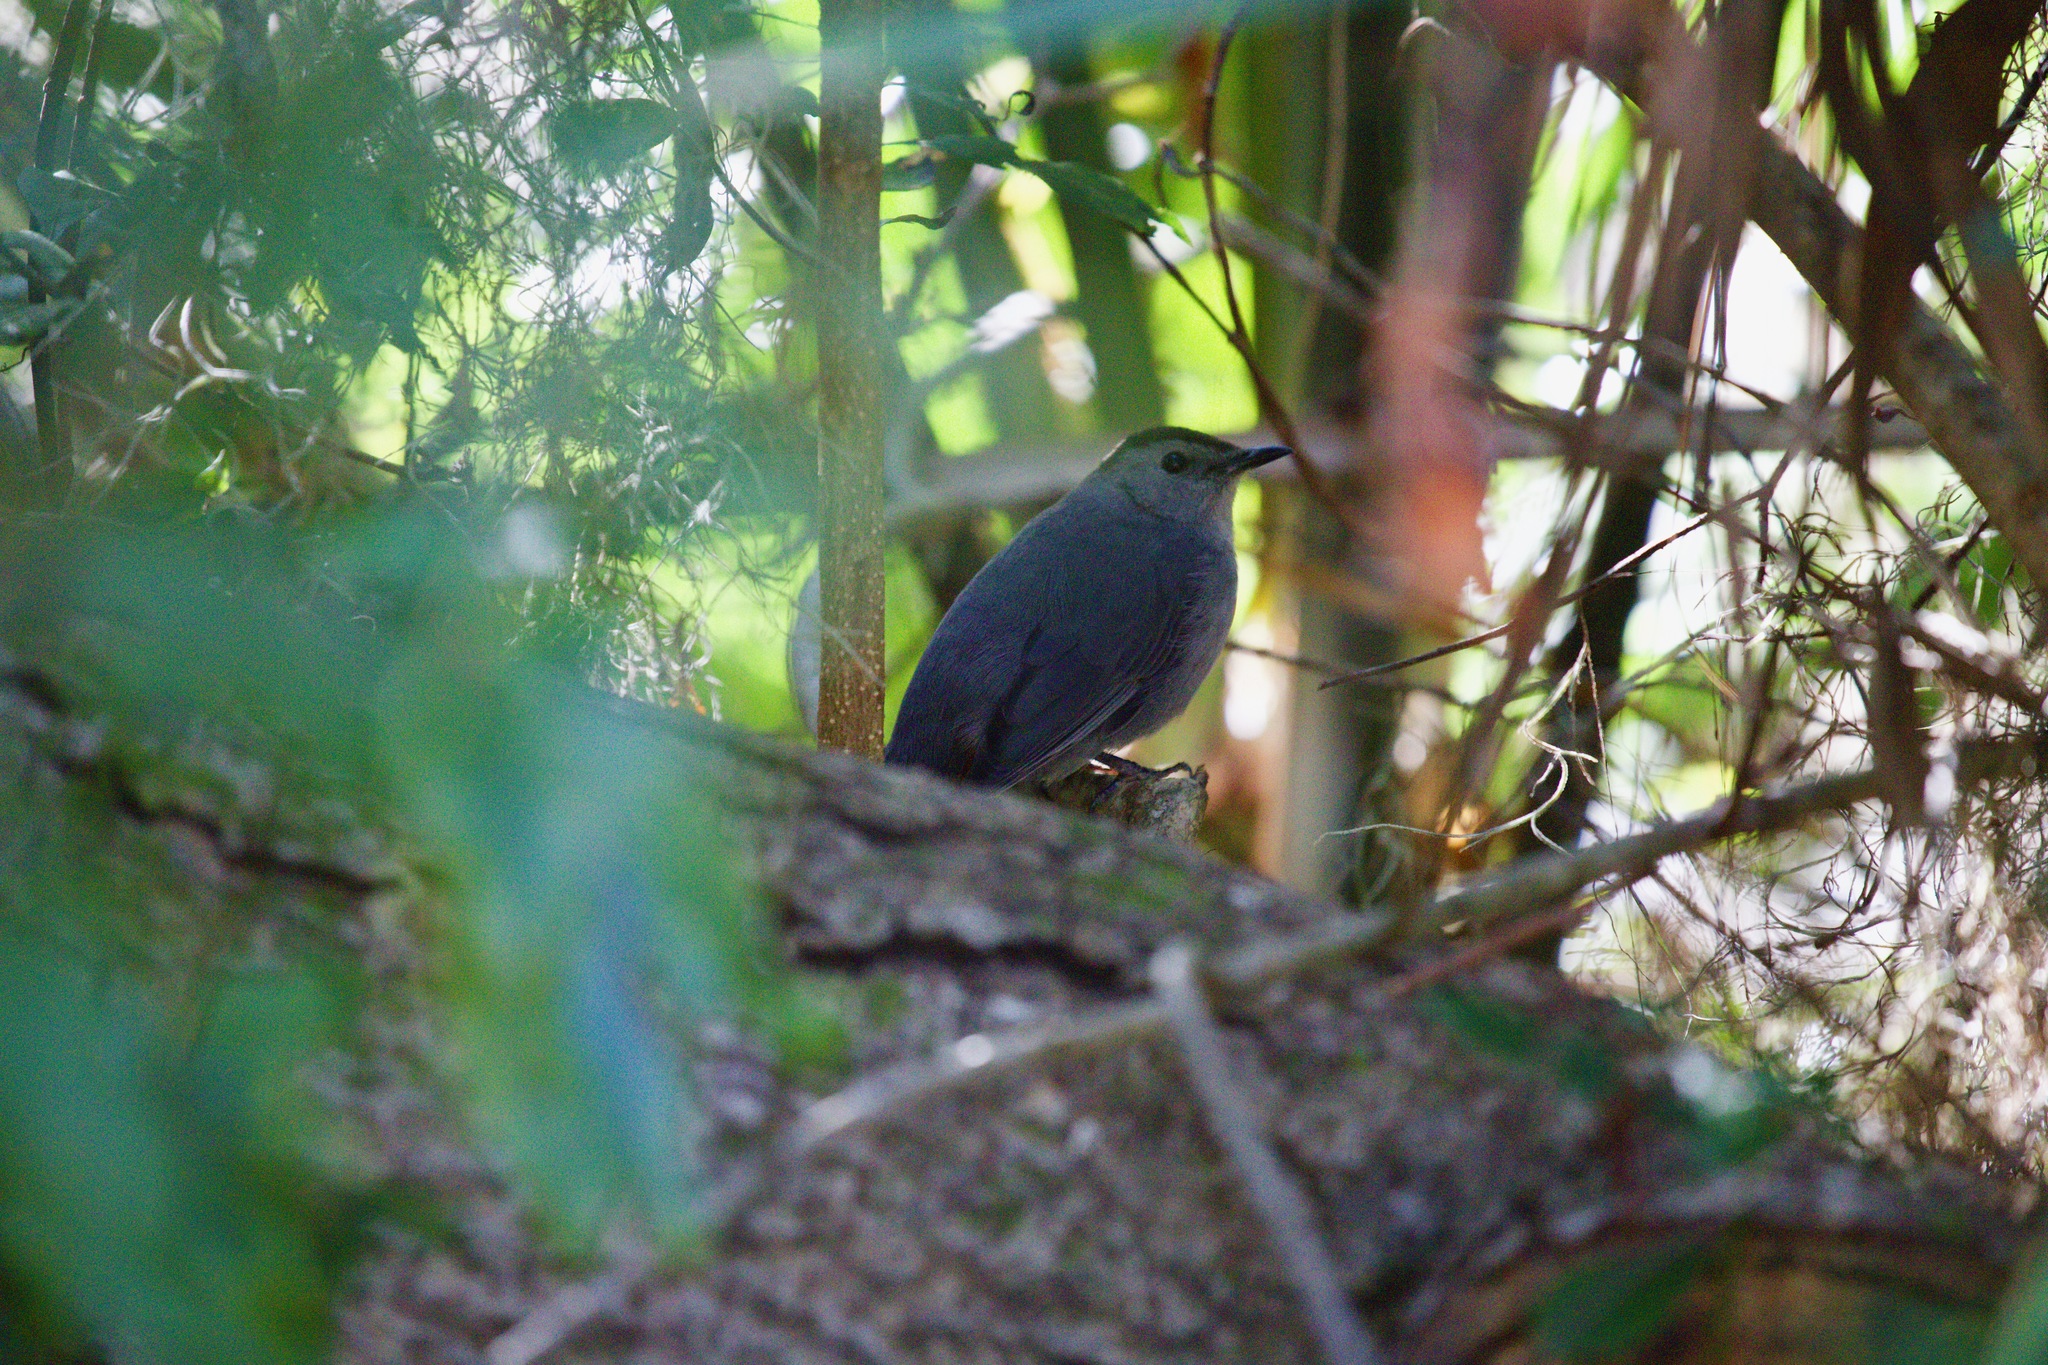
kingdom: Animalia
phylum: Chordata
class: Aves
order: Passeriformes
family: Mimidae
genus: Dumetella
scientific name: Dumetella carolinensis
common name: Gray catbird
